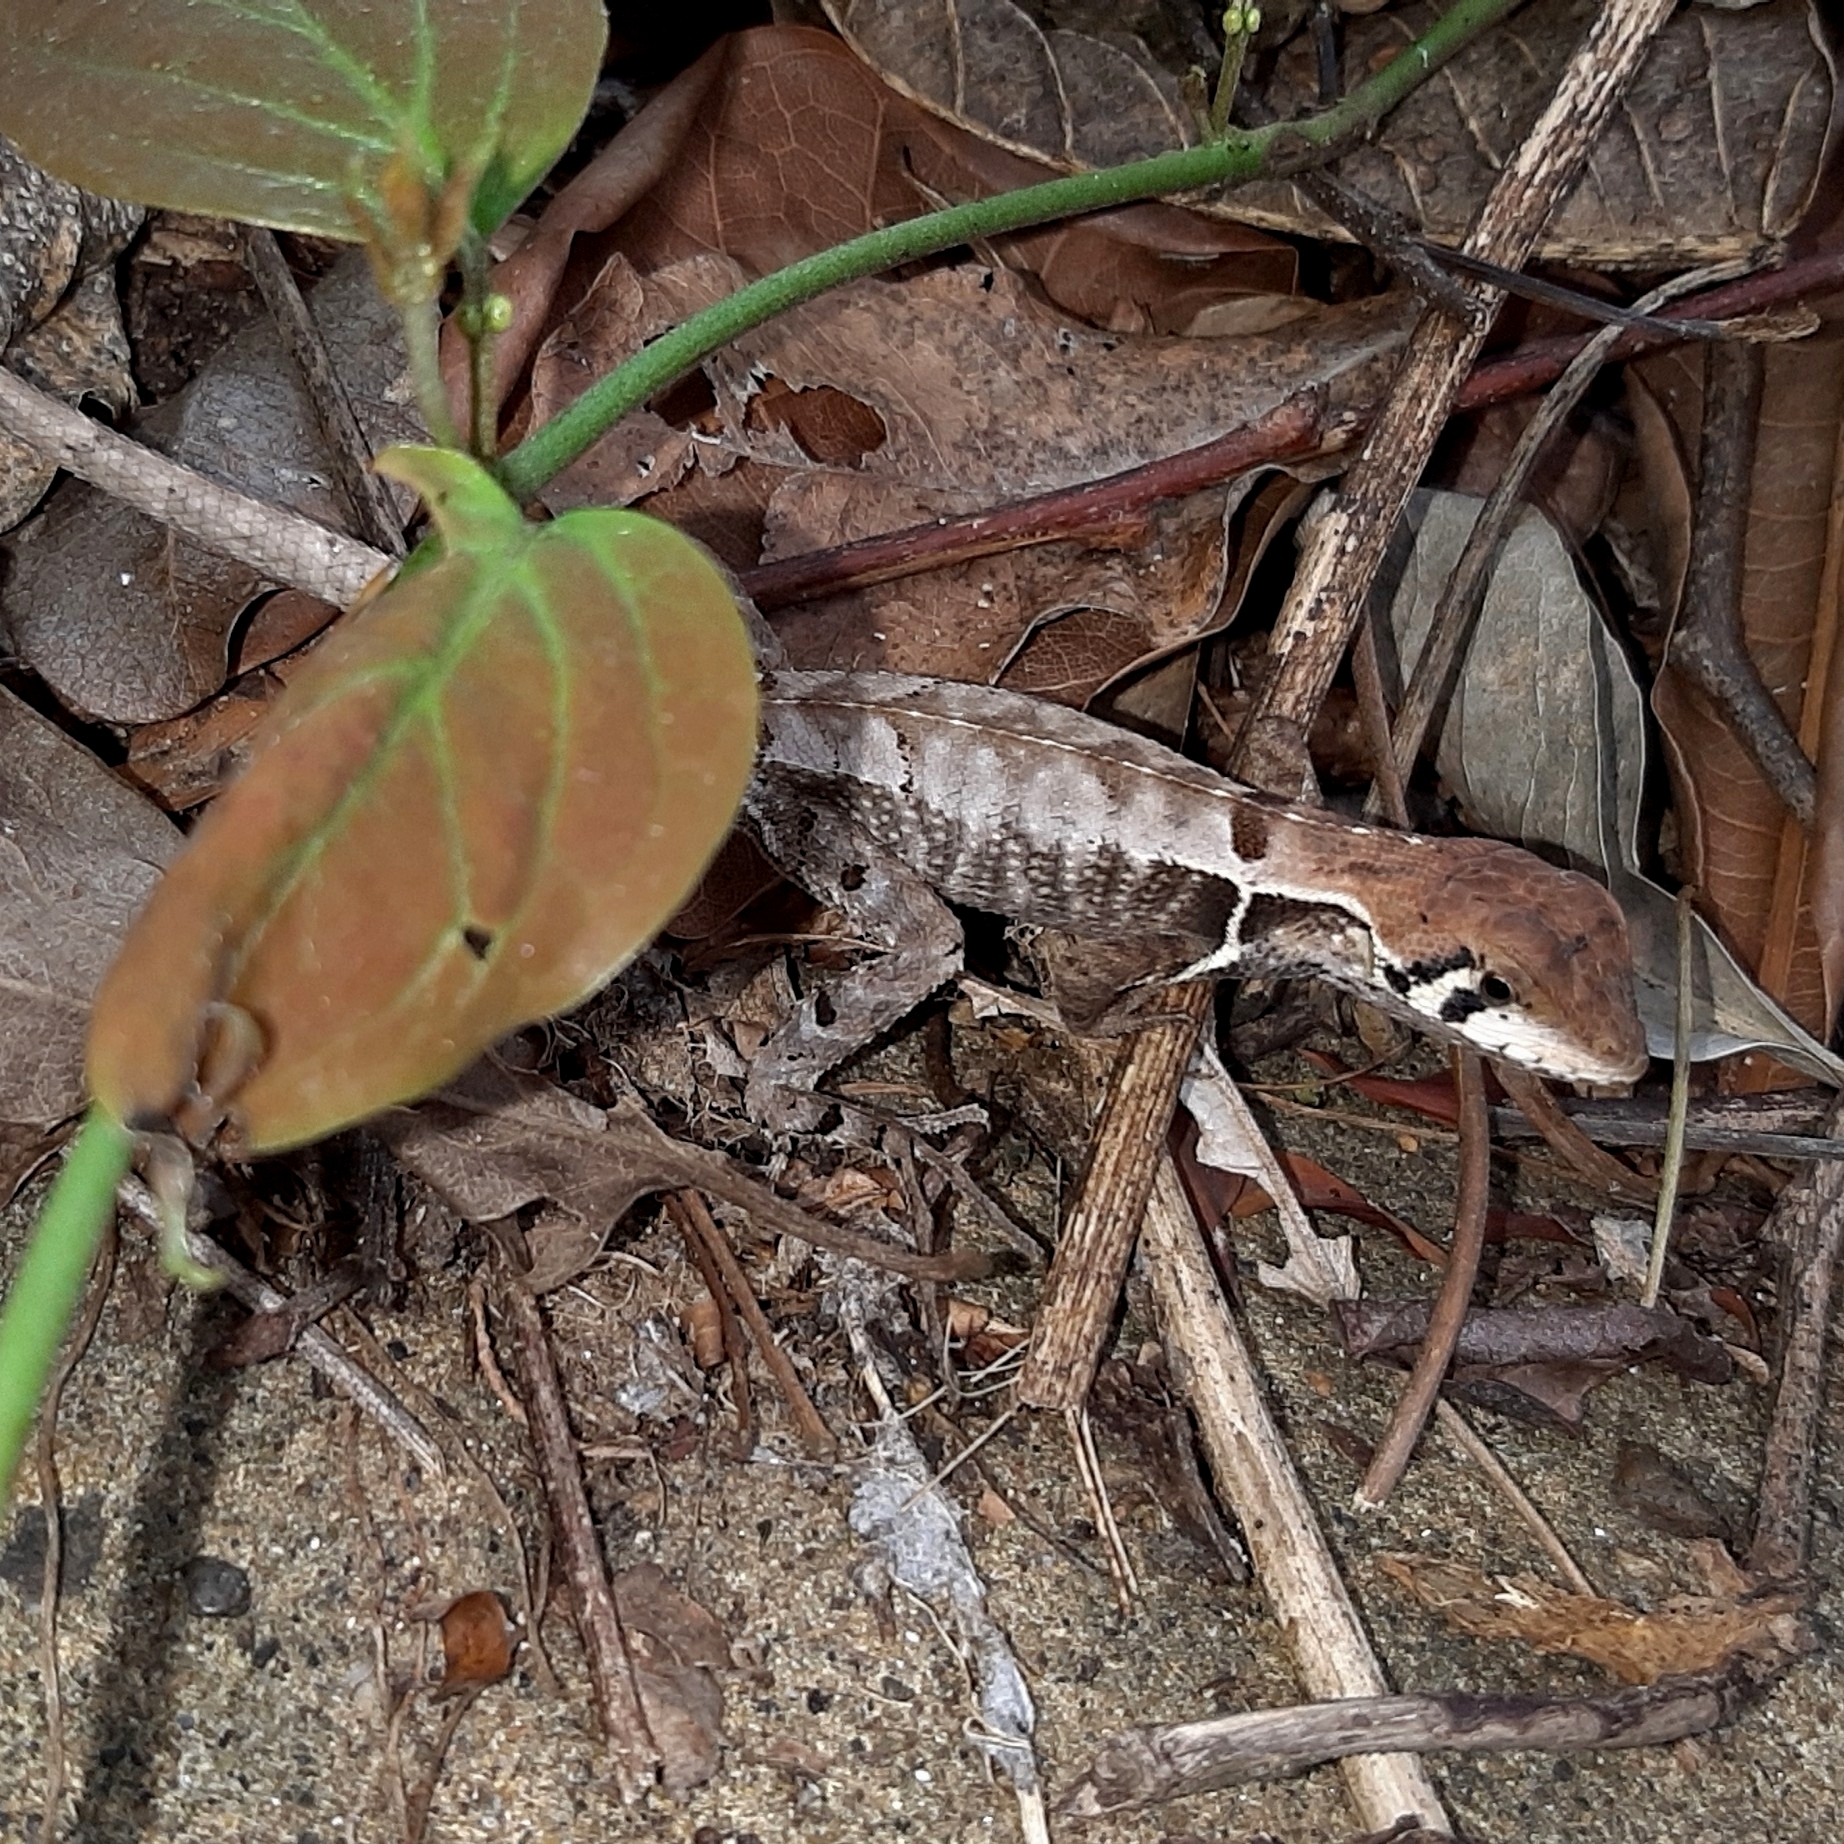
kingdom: Animalia
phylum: Chordata
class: Squamata
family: Tropiduridae
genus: Stenocercus
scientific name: Stenocercus erythrogaster
